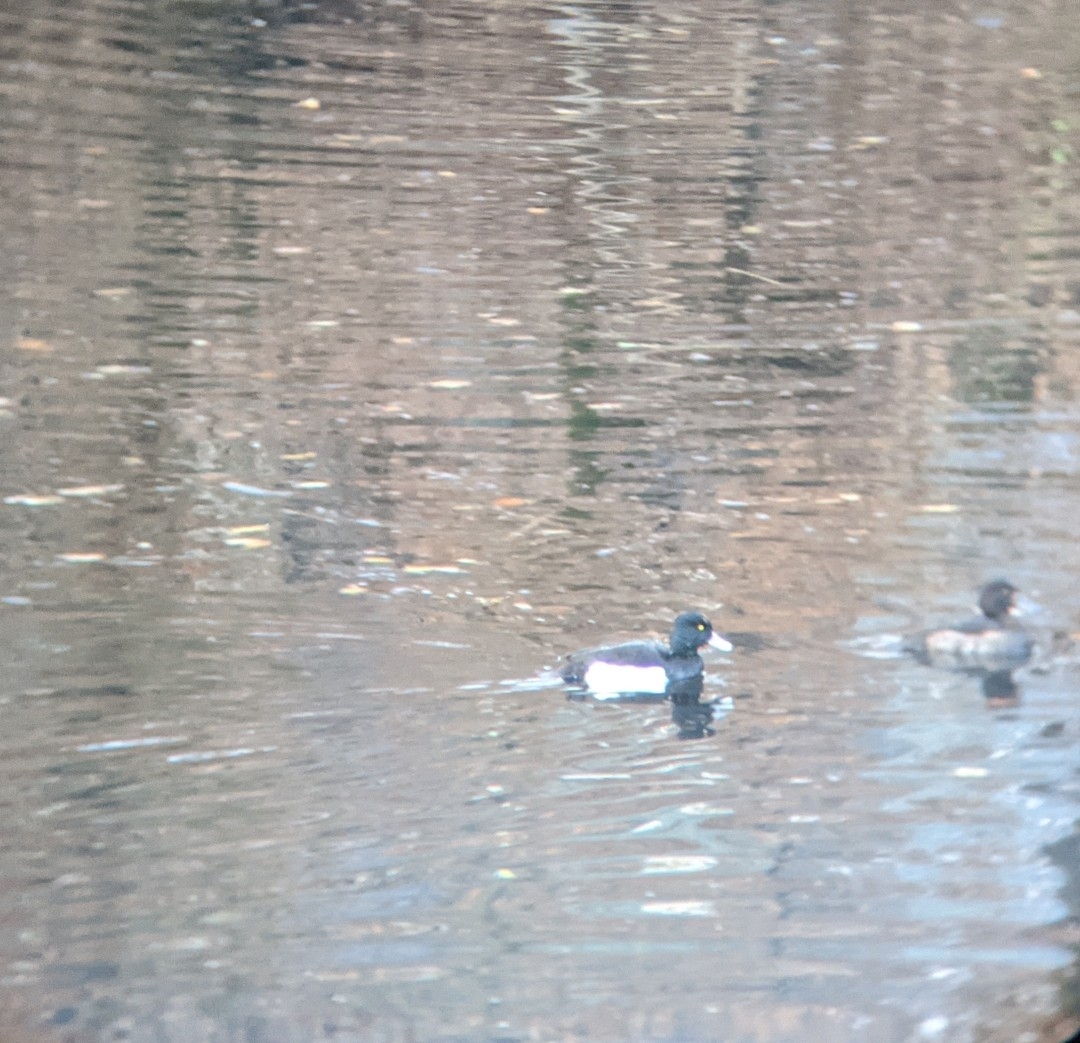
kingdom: Animalia
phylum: Chordata
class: Aves
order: Anseriformes
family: Anatidae
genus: Aythya
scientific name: Aythya fuligula
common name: Tufted duck
